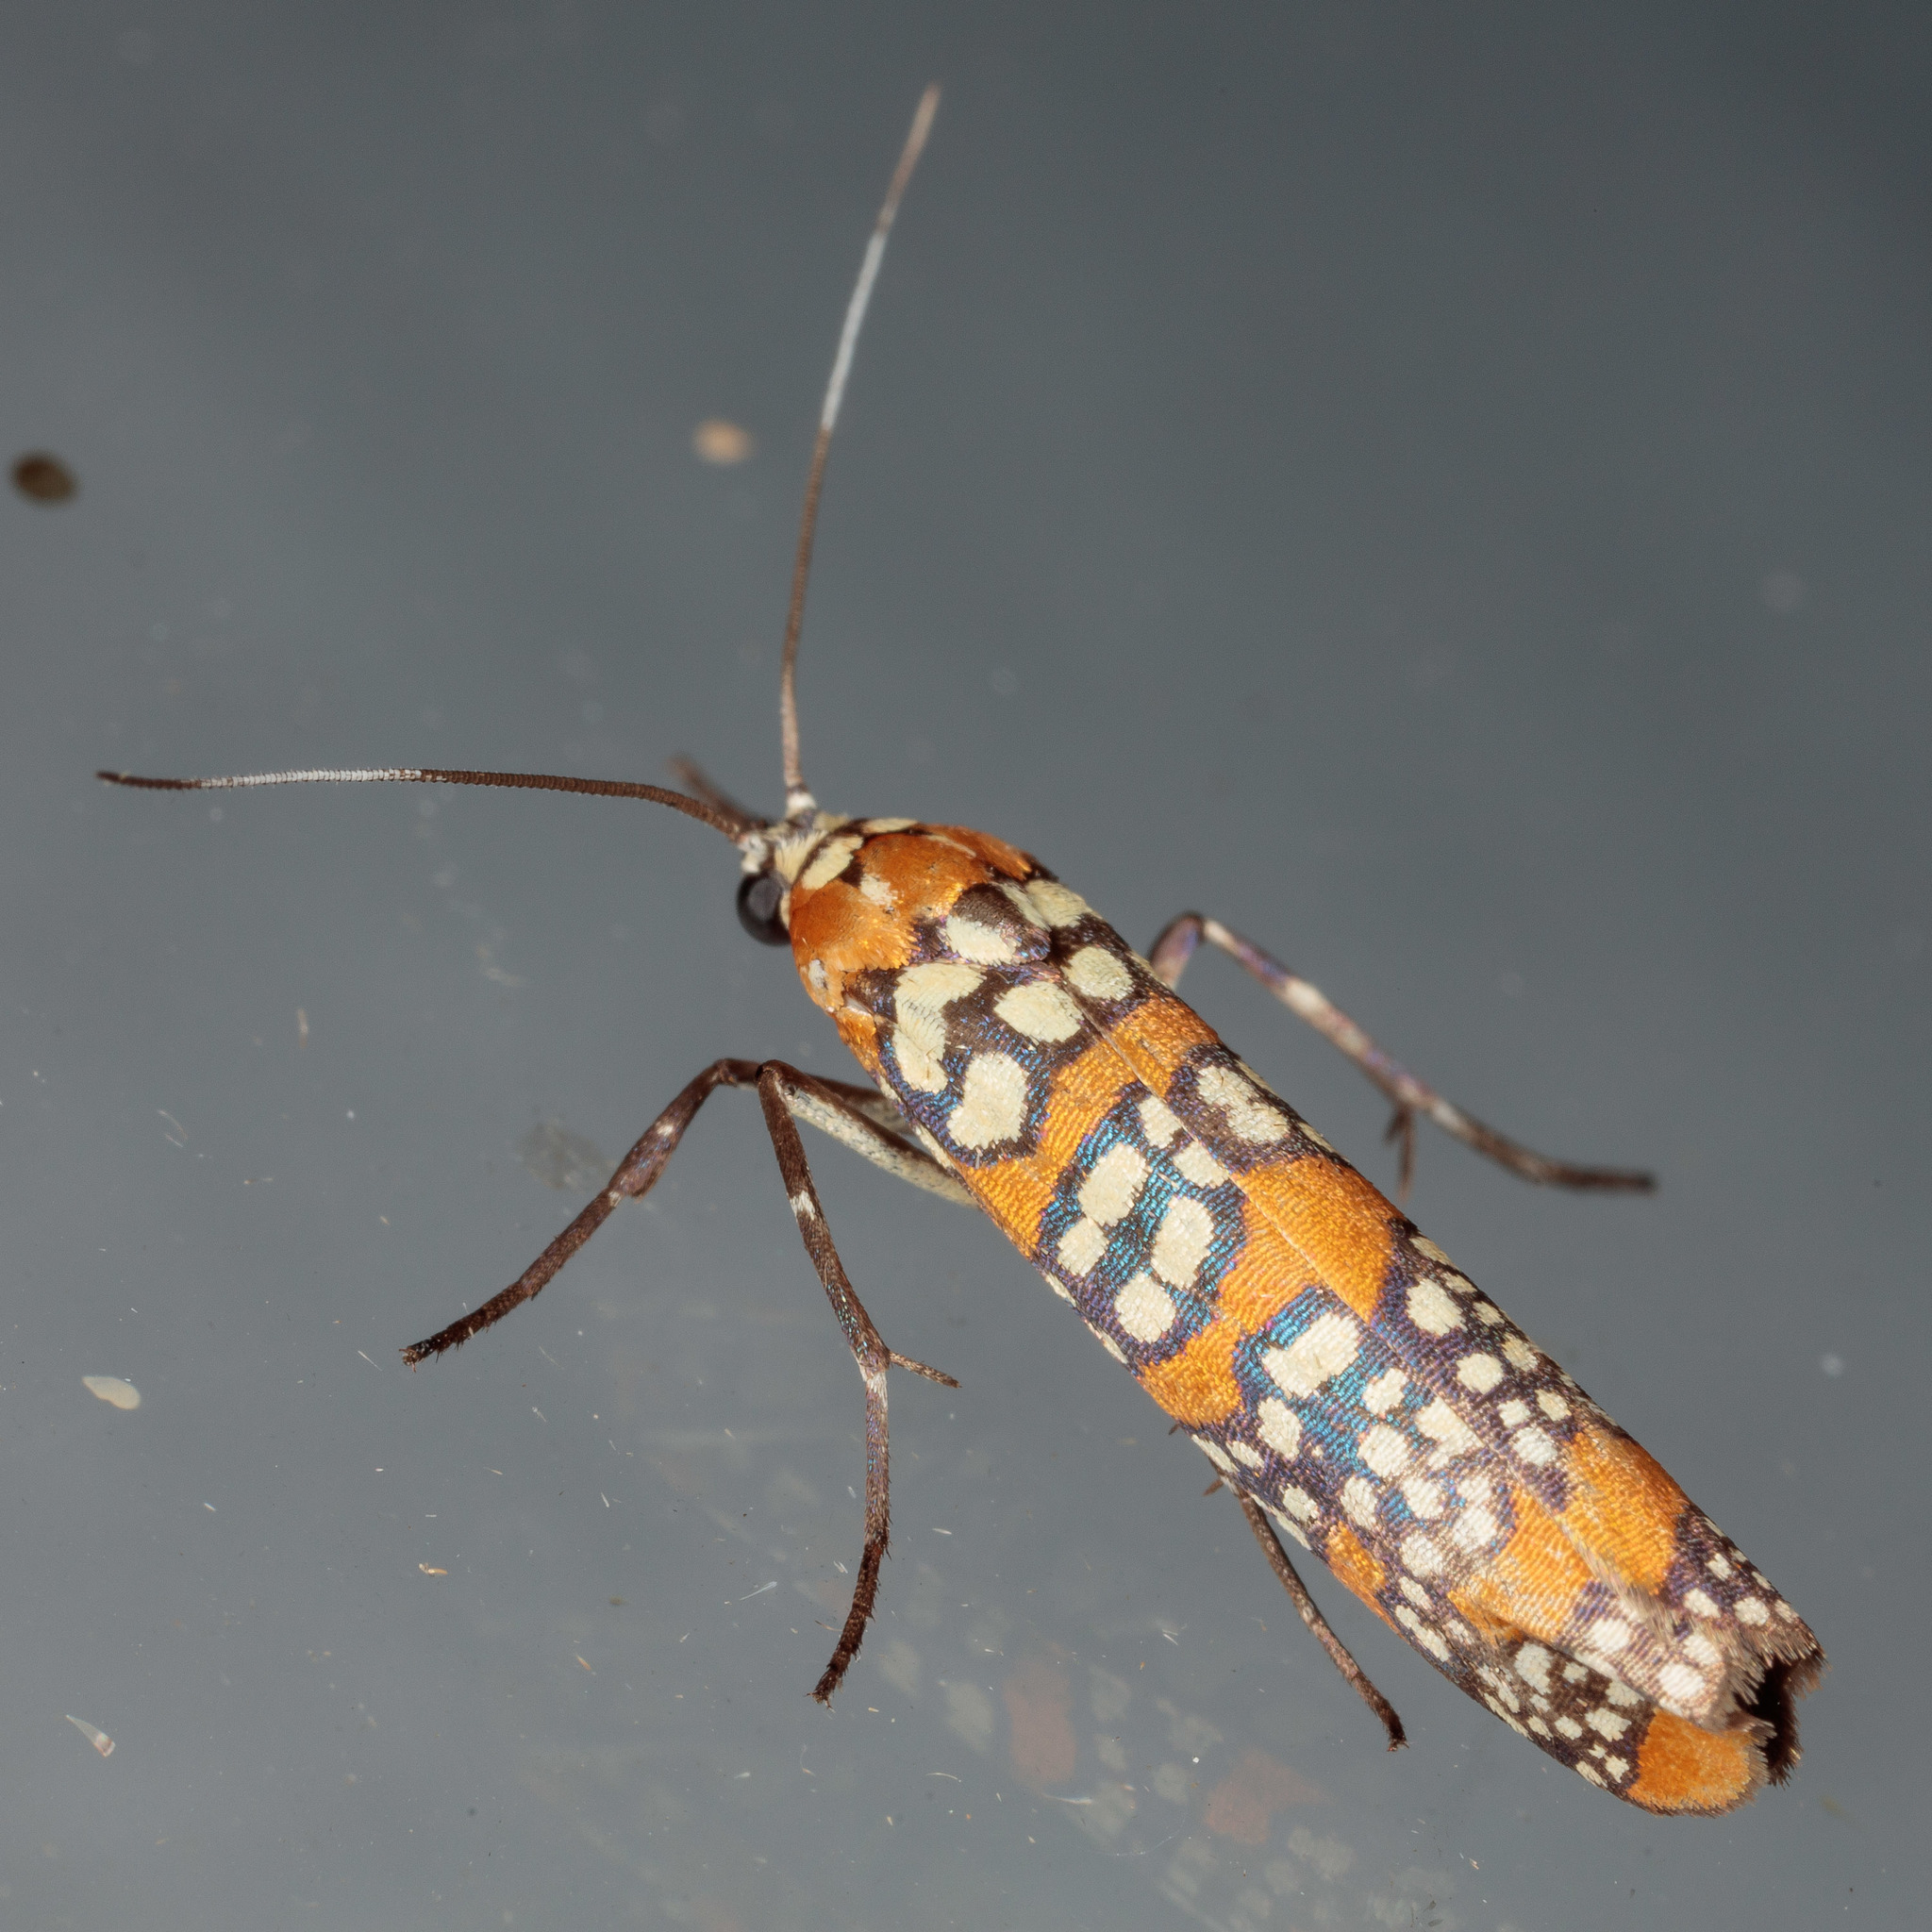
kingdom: Animalia
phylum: Arthropoda
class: Insecta
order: Lepidoptera
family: Attevidae
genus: Atteva
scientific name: Atteva punctella
